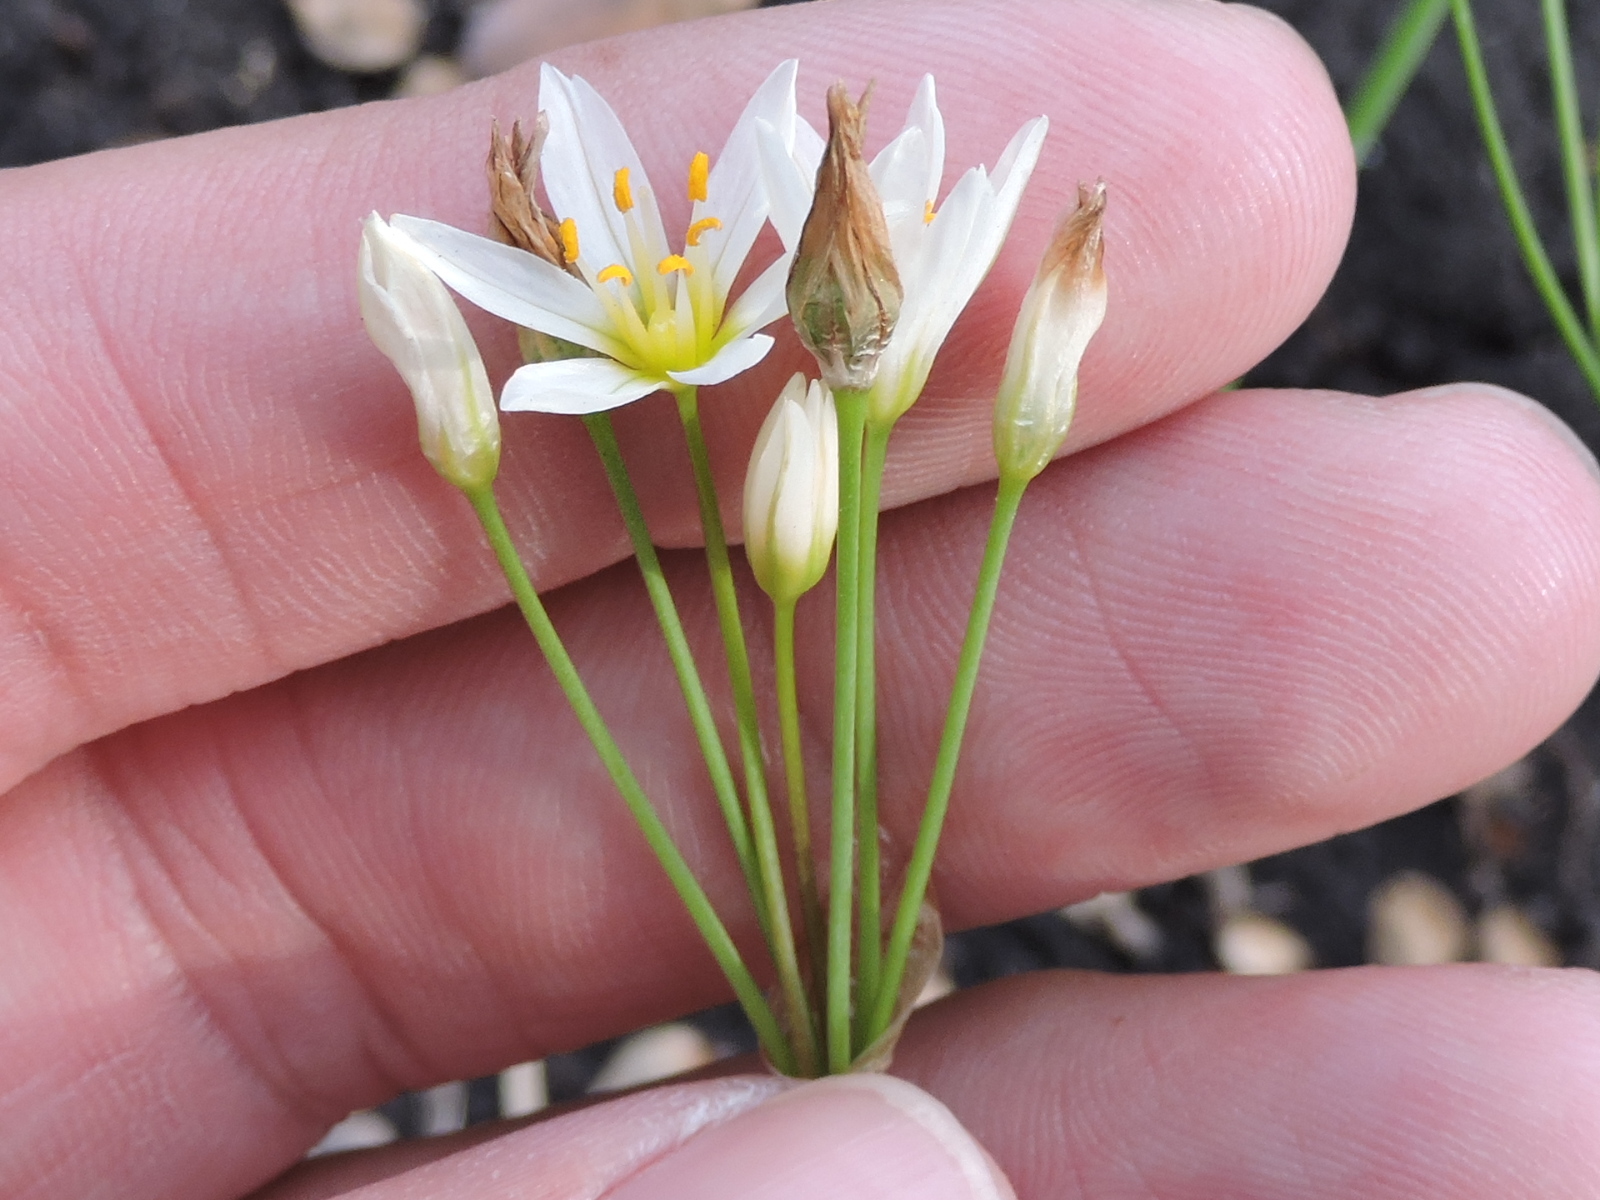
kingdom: Plantae
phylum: Tracheophyta
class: Liliopsida
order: Asparagales
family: Amaryllidaceae
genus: Nothoscordum
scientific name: Nothoscordum bivalve
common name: Crow-poison
